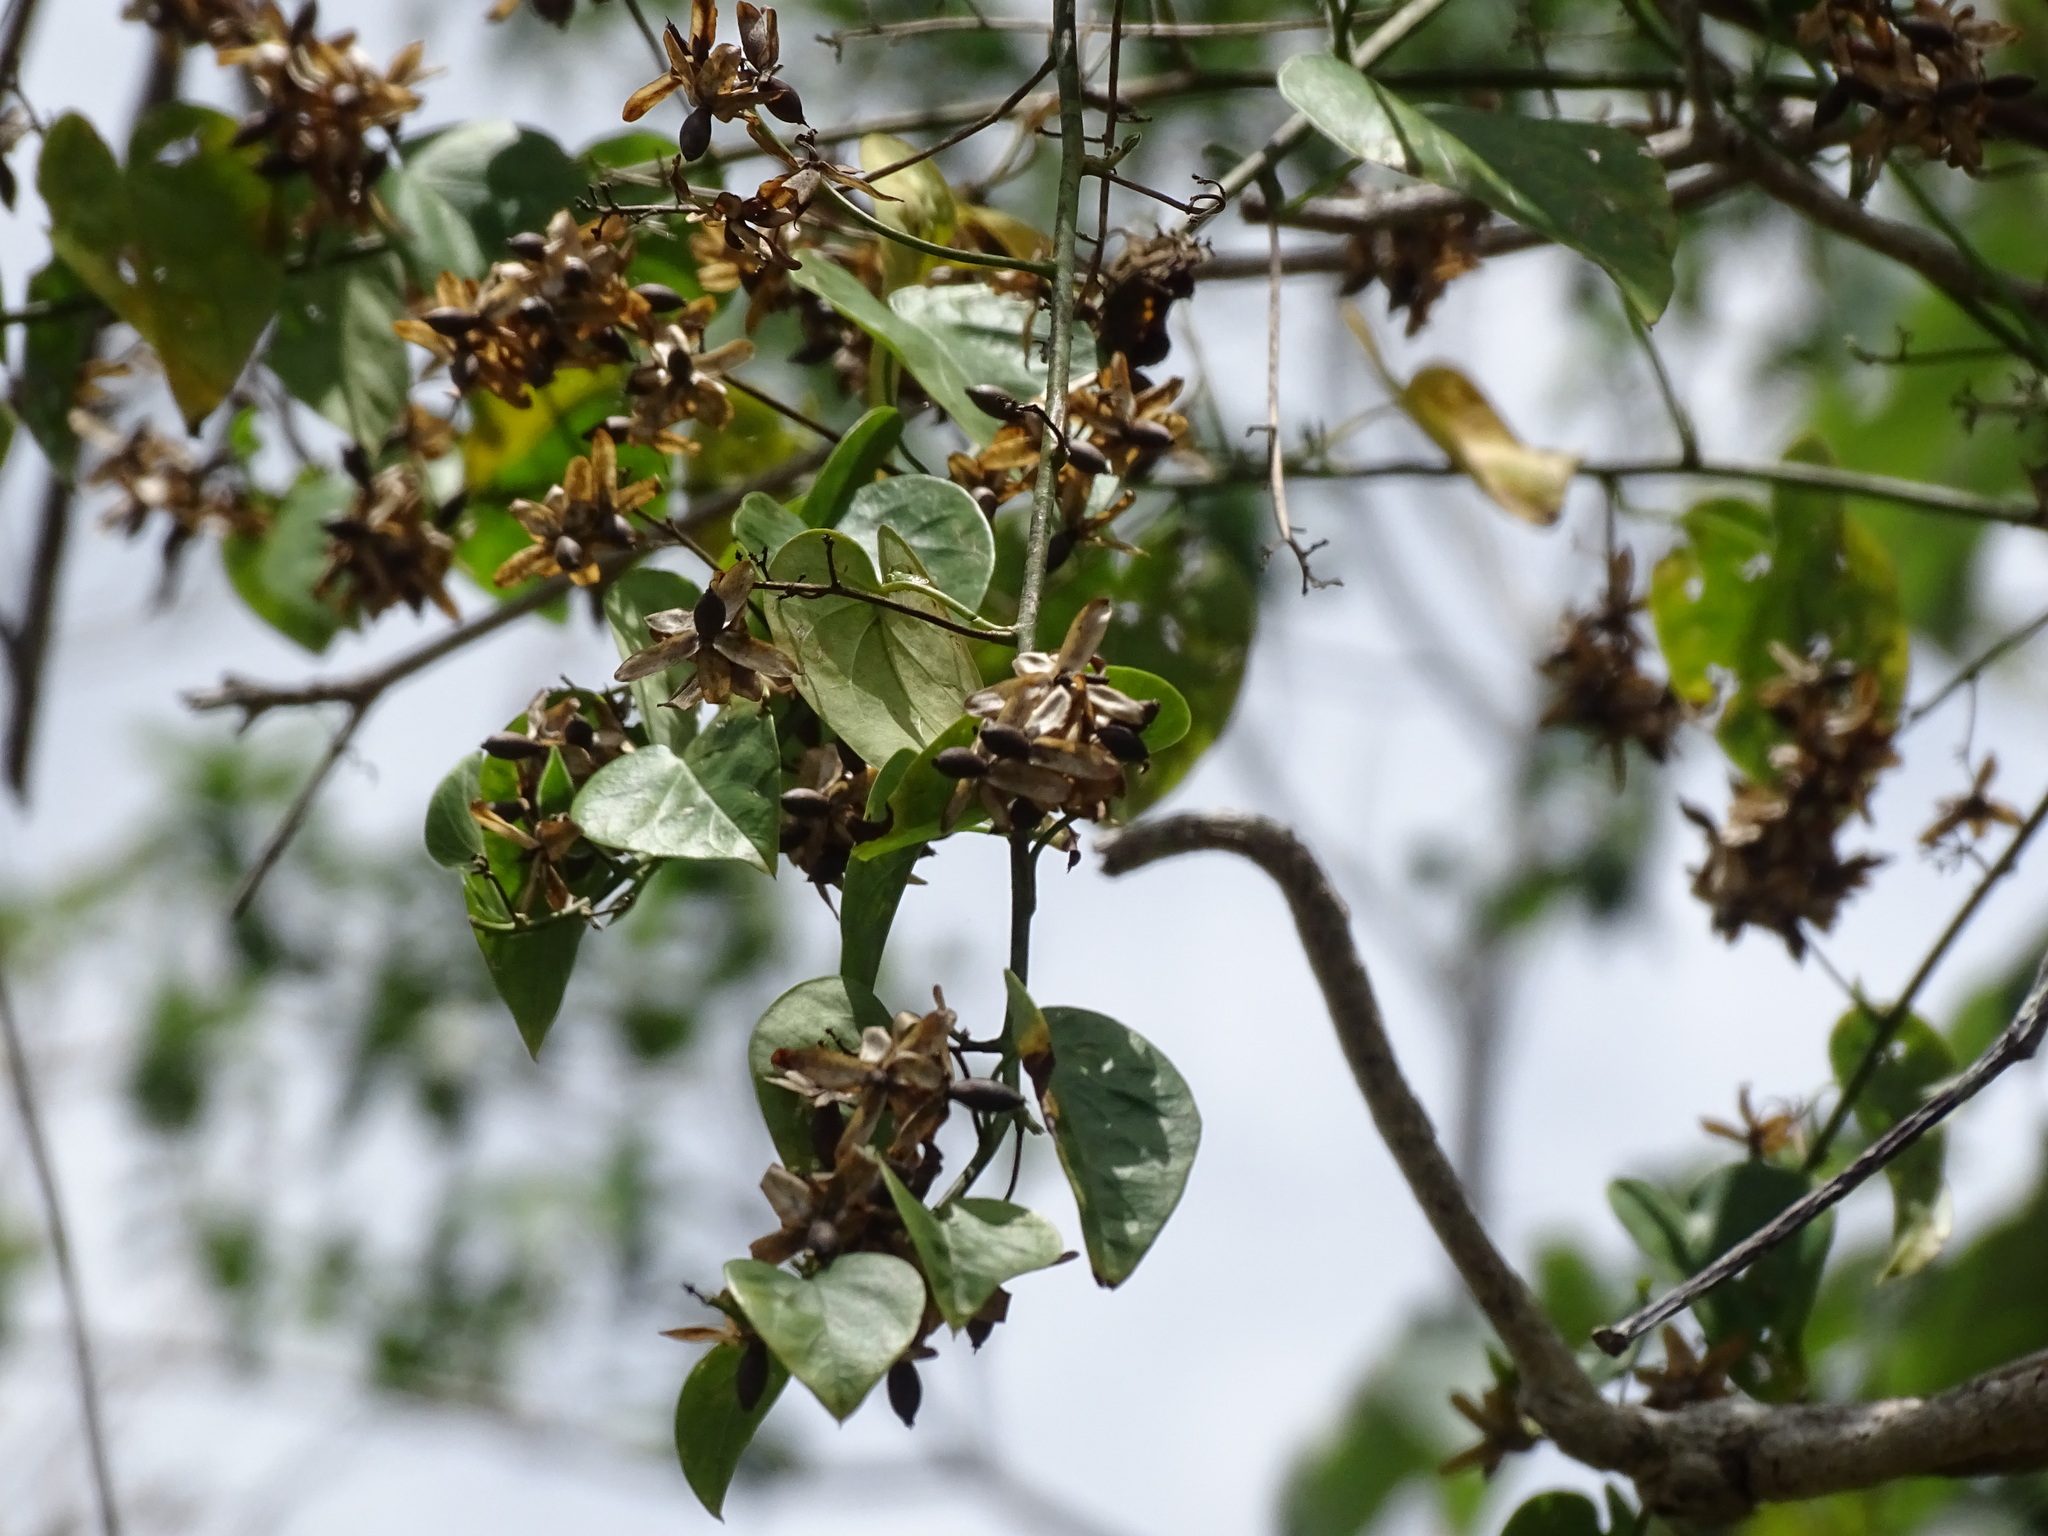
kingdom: Plantae
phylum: Tracheophyta
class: Magnoliopsida
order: Solanales
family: Convolvulaceae
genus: Ipomoea
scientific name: Ipomoea corymbosa
